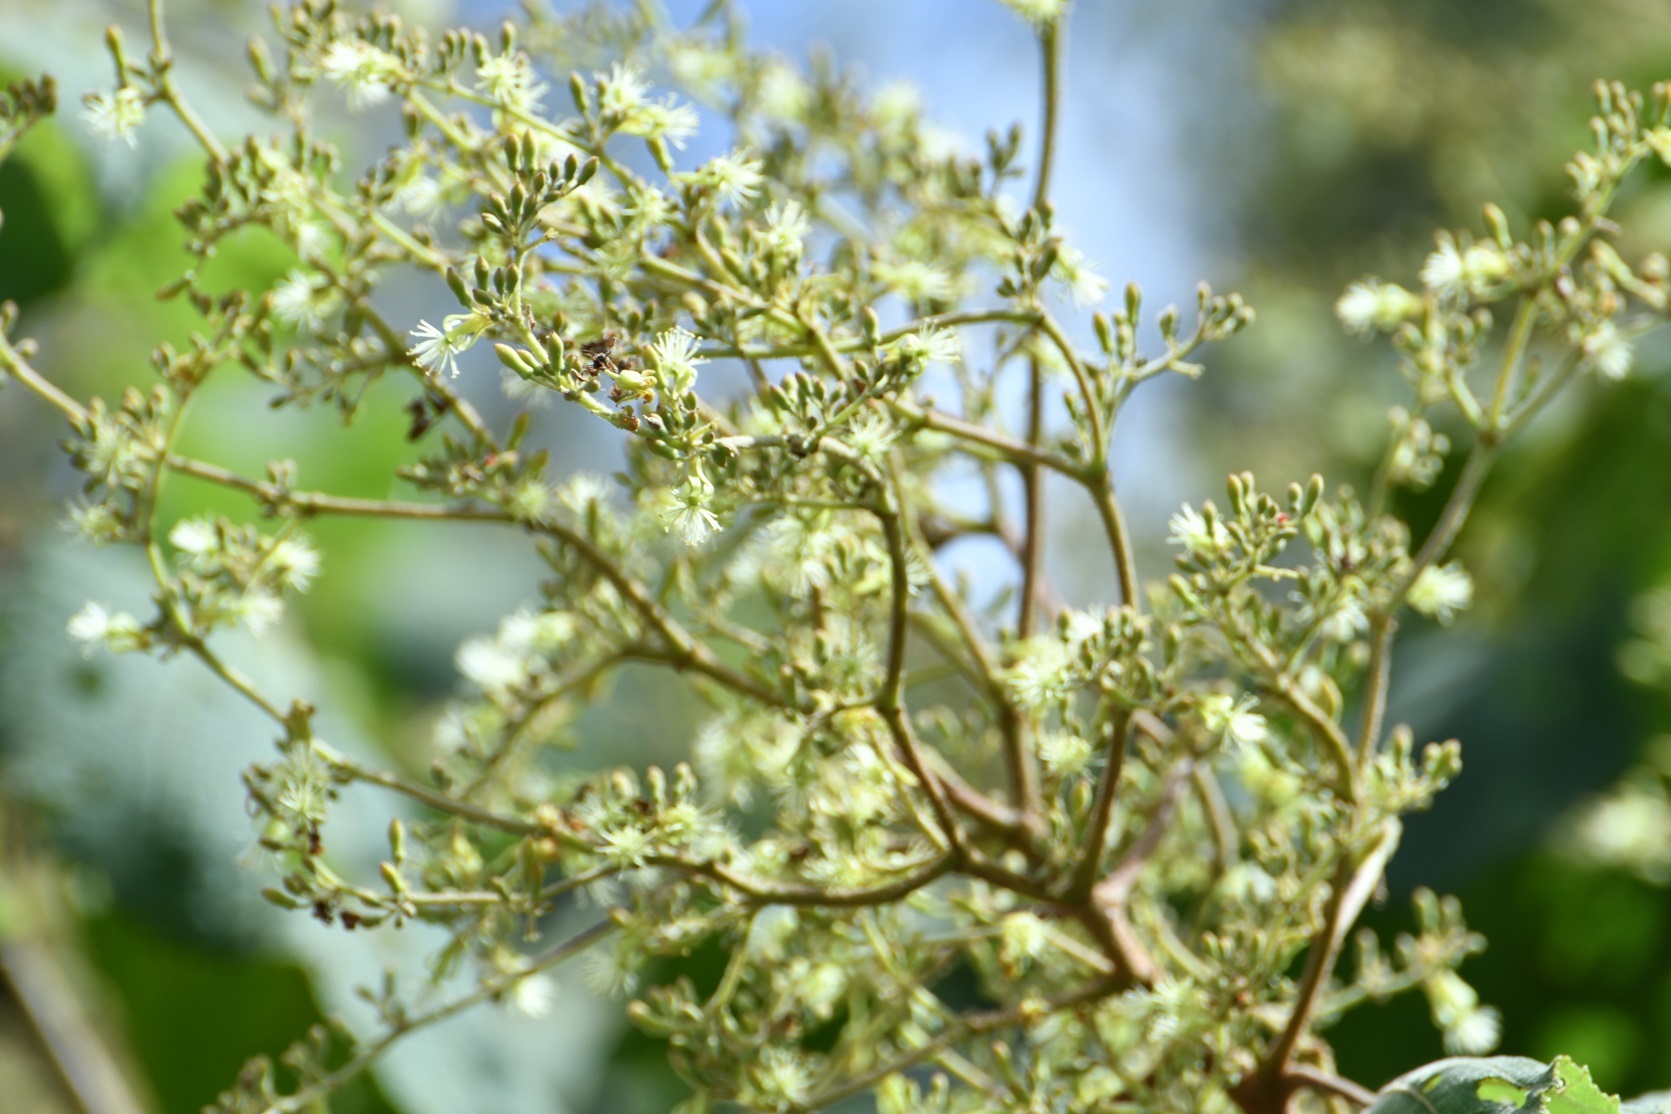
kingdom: Plantae
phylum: Tracheophyta
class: Magnoliopsida
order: Malvales
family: Malvaceae
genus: Heliocarpus
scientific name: Heliocarpus terebinthinaceus
